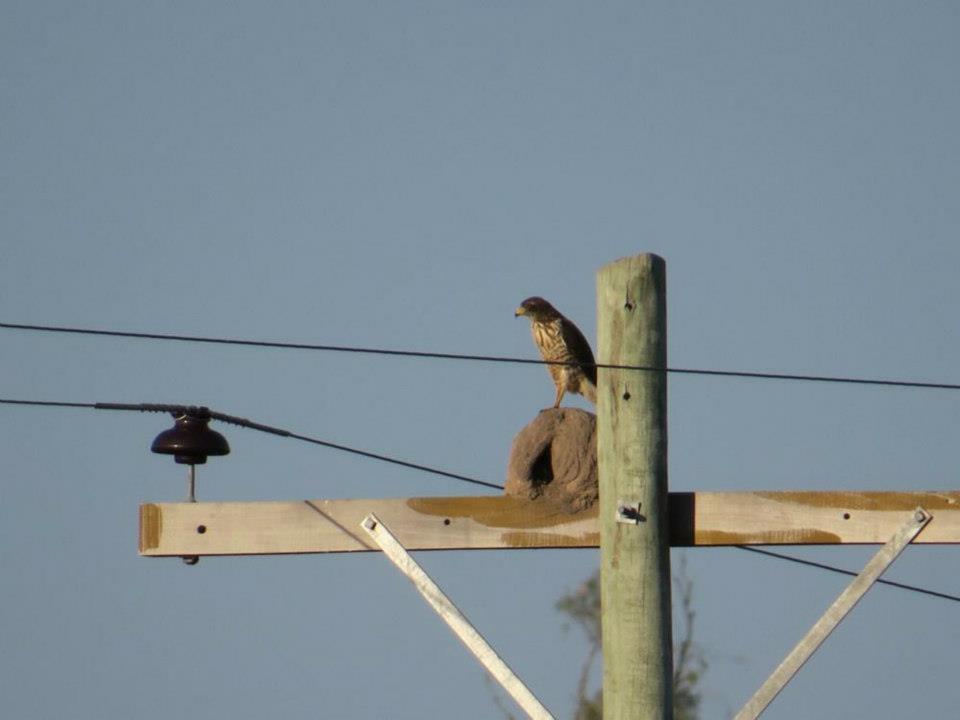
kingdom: Animalia
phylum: Chordata
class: Aves
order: Accipitriformes
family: Accipitridae
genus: Rupornis
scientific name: Rupornis magnirostris
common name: Roadside hawk
